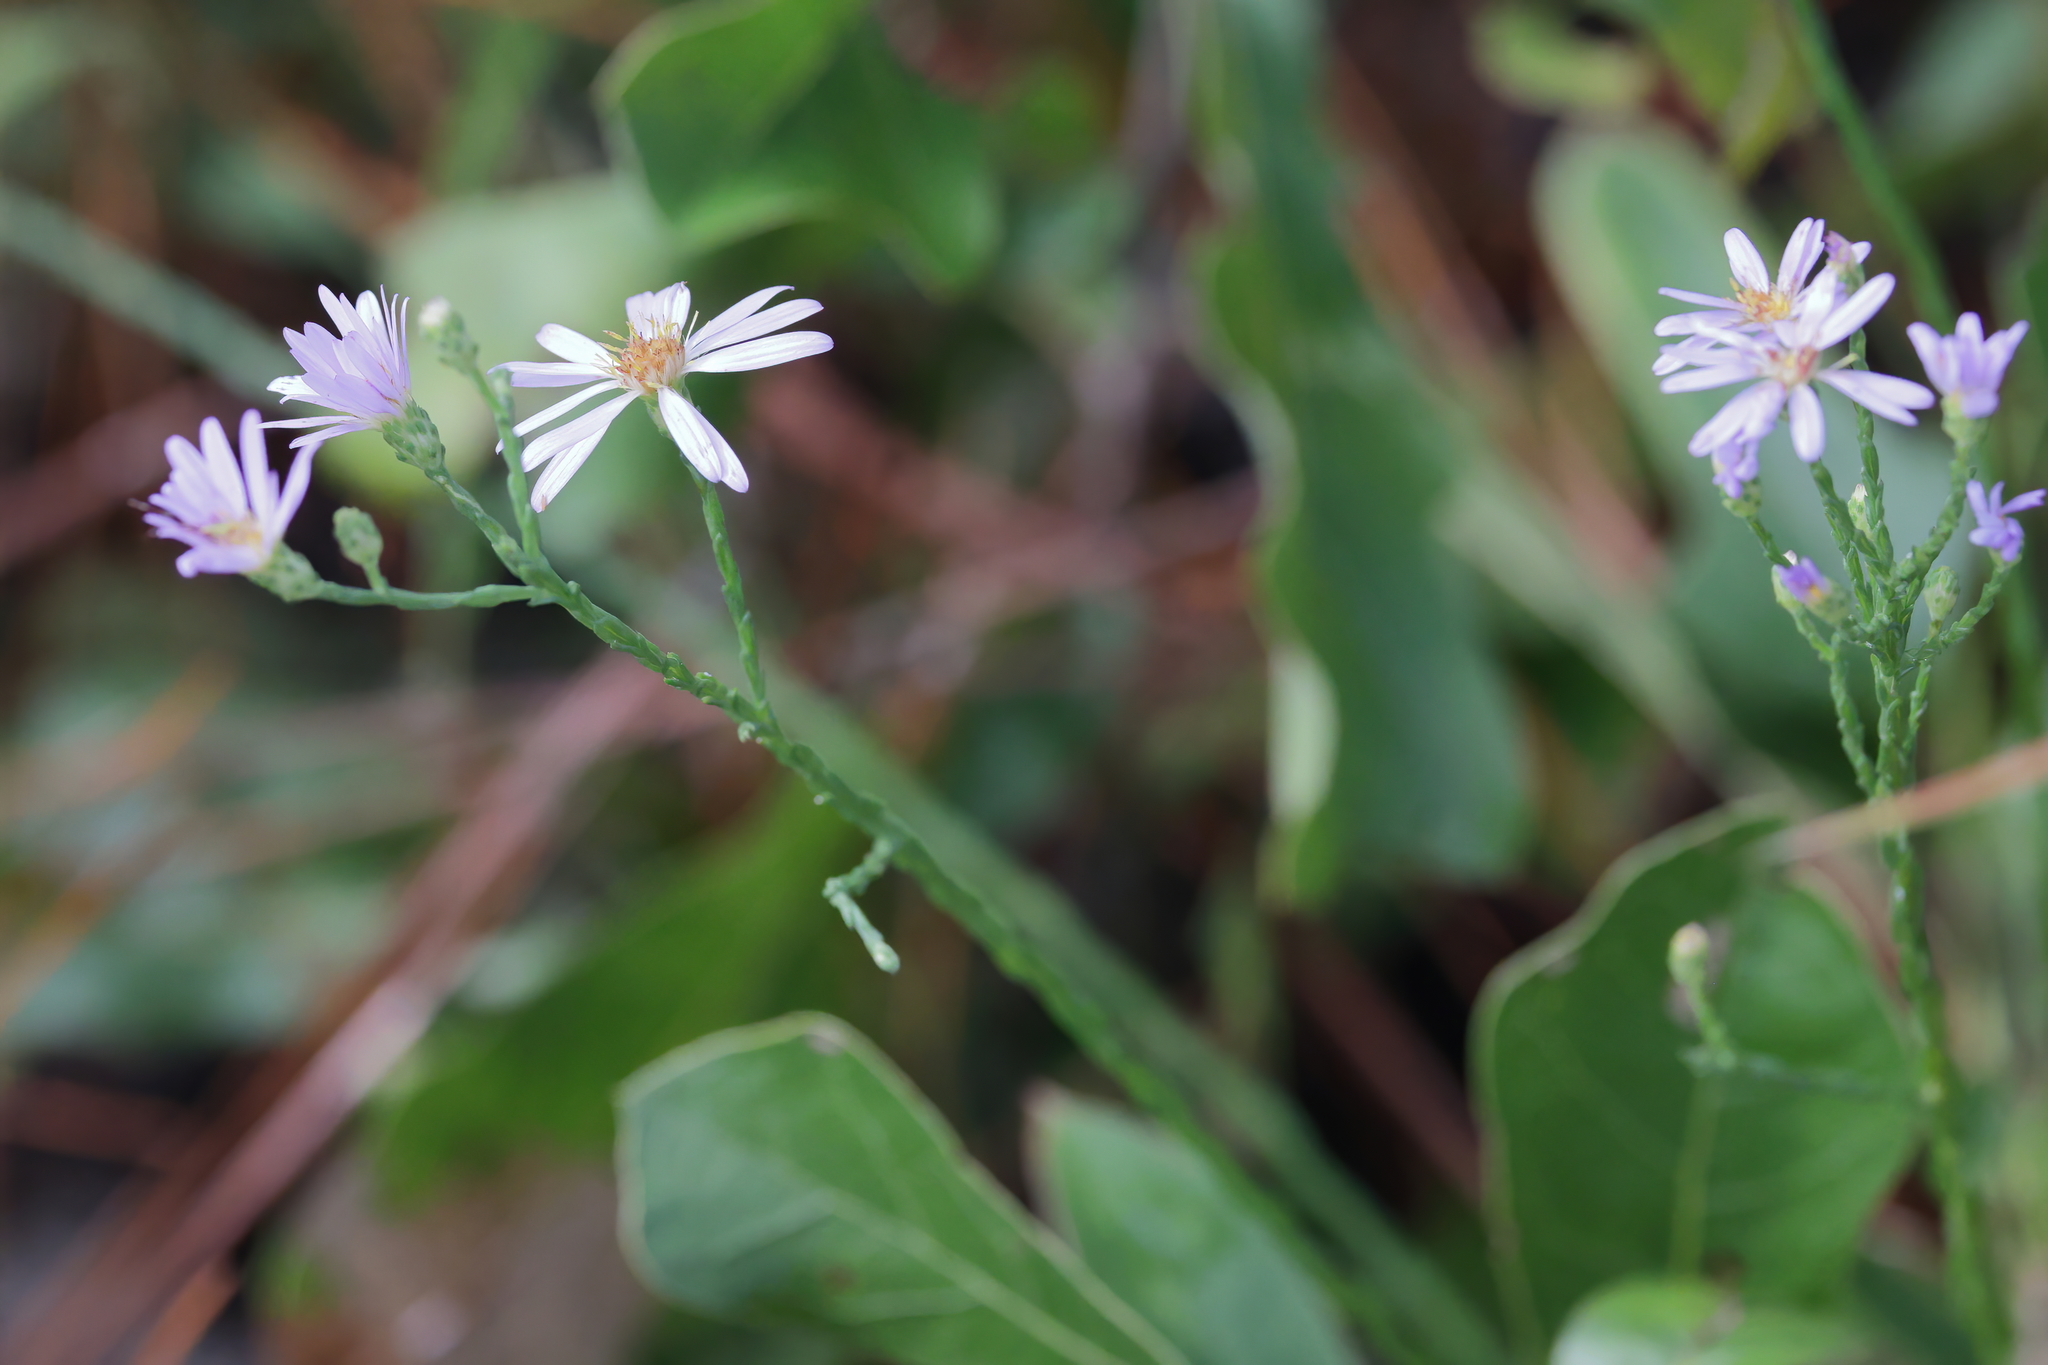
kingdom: Plantae
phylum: Tracheophyta
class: Magnoliopsida
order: Asterales
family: Asteraceae
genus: Symphyotrichum
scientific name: Symphyotrichum adnatum
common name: Scale-leaf aster
